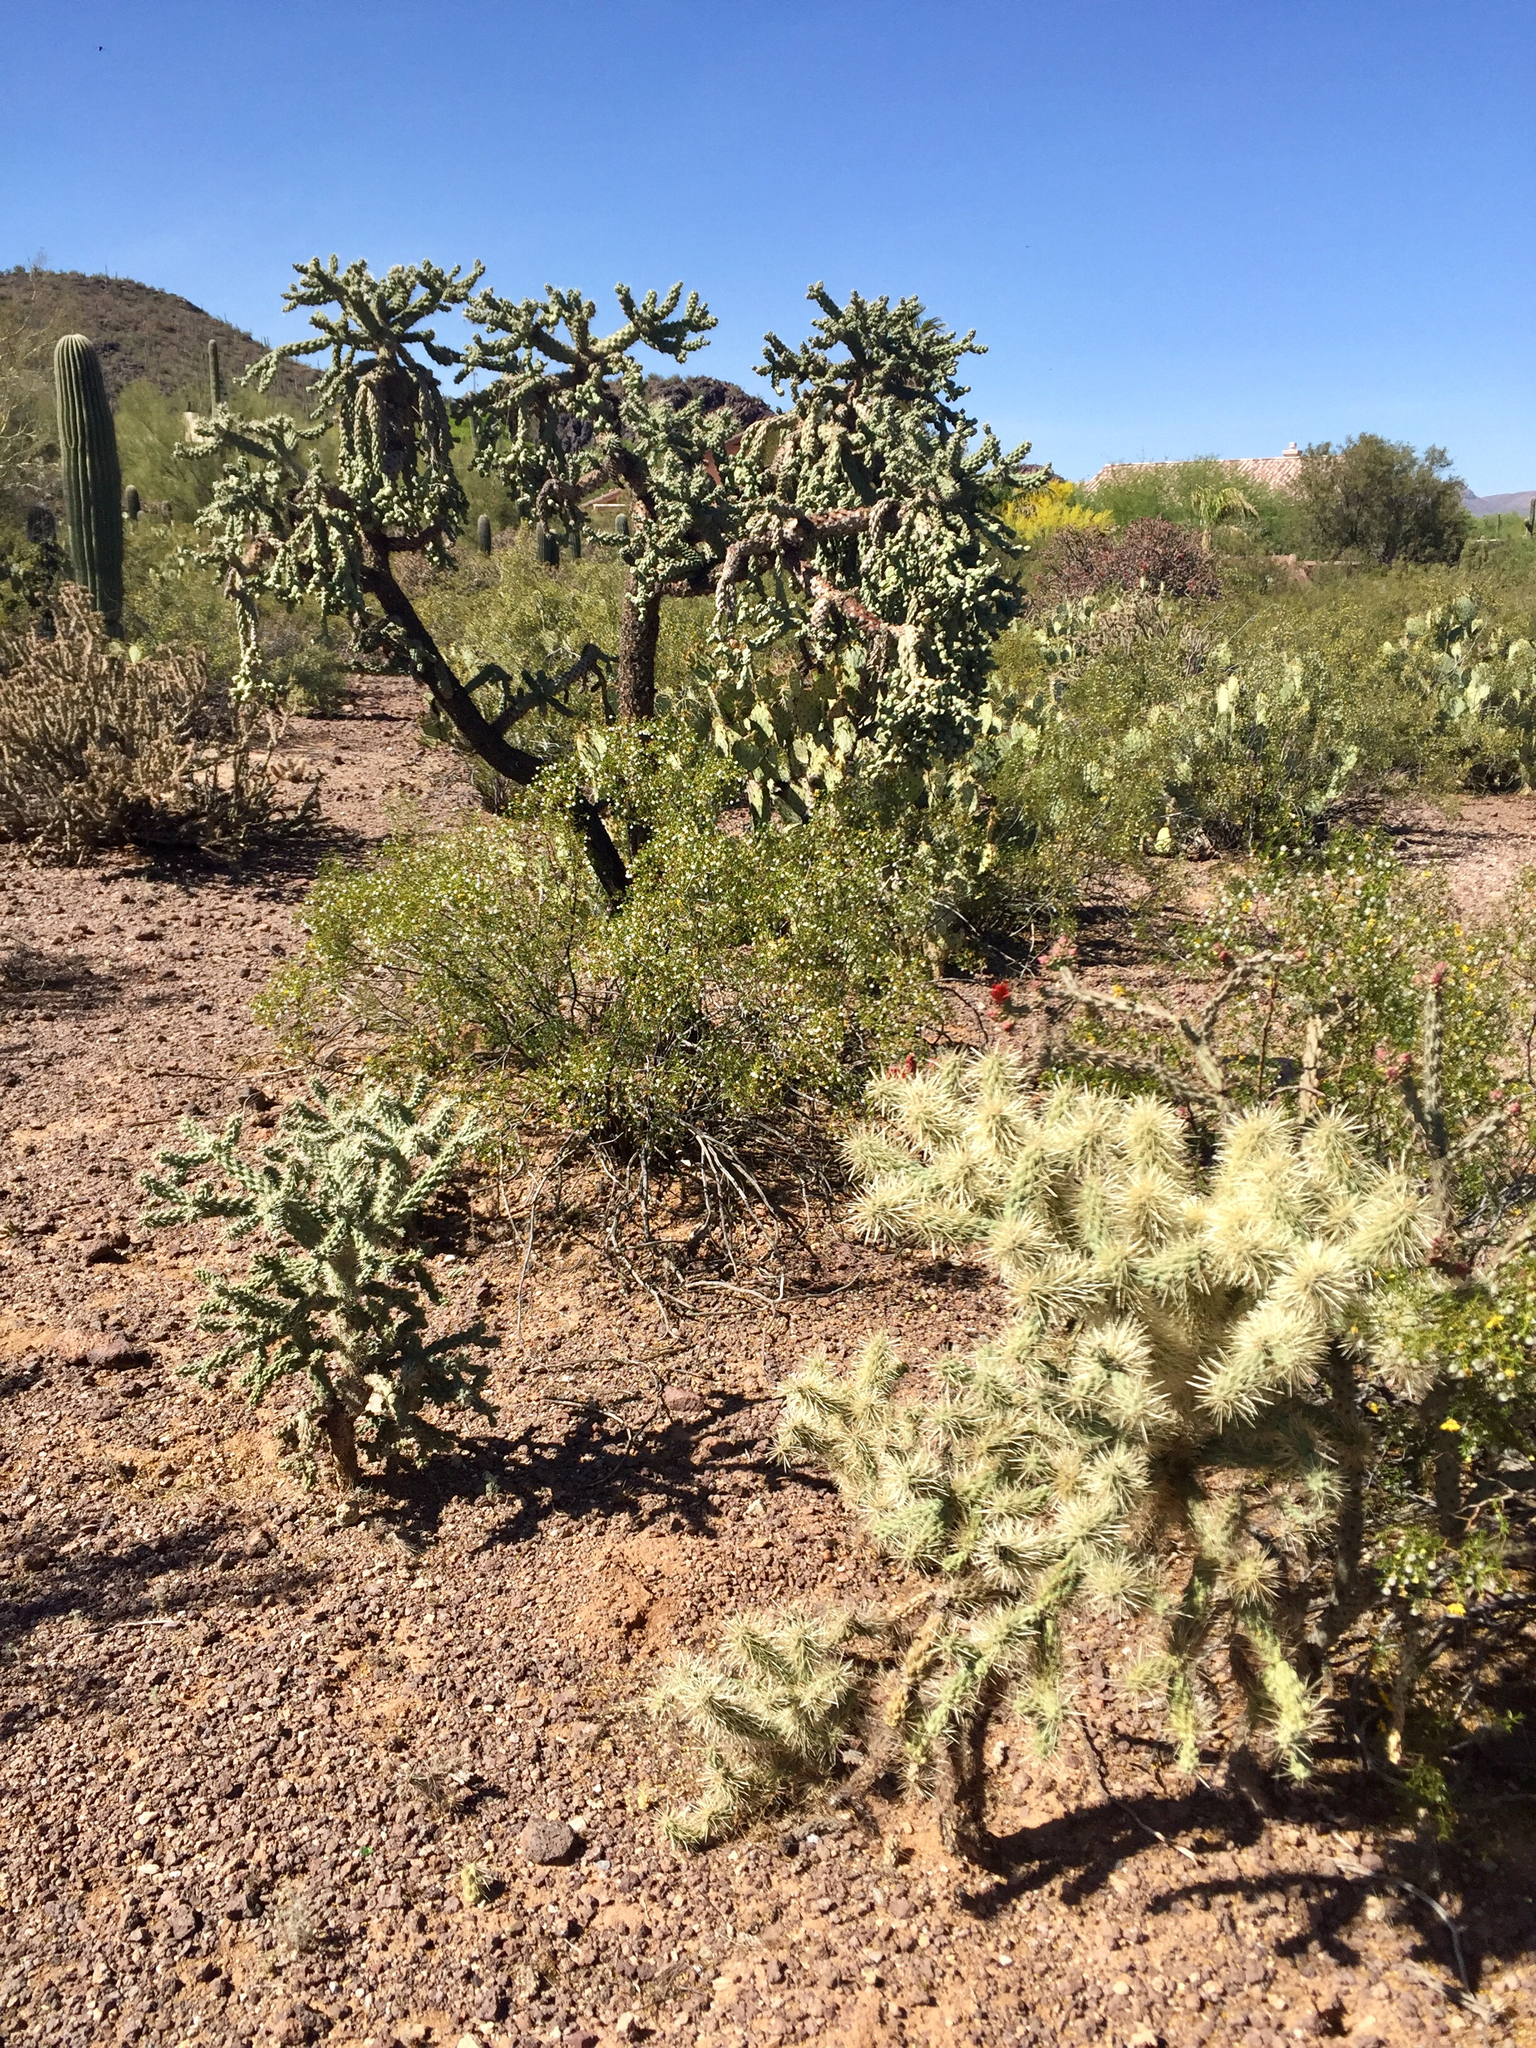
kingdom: Plantae
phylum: Tracheophyta
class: Magnoliopsida
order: Caryophyllales
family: Cactaceae
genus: Cylindropuntia
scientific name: Cylindropuntia fulgida
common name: Jumping cholla
